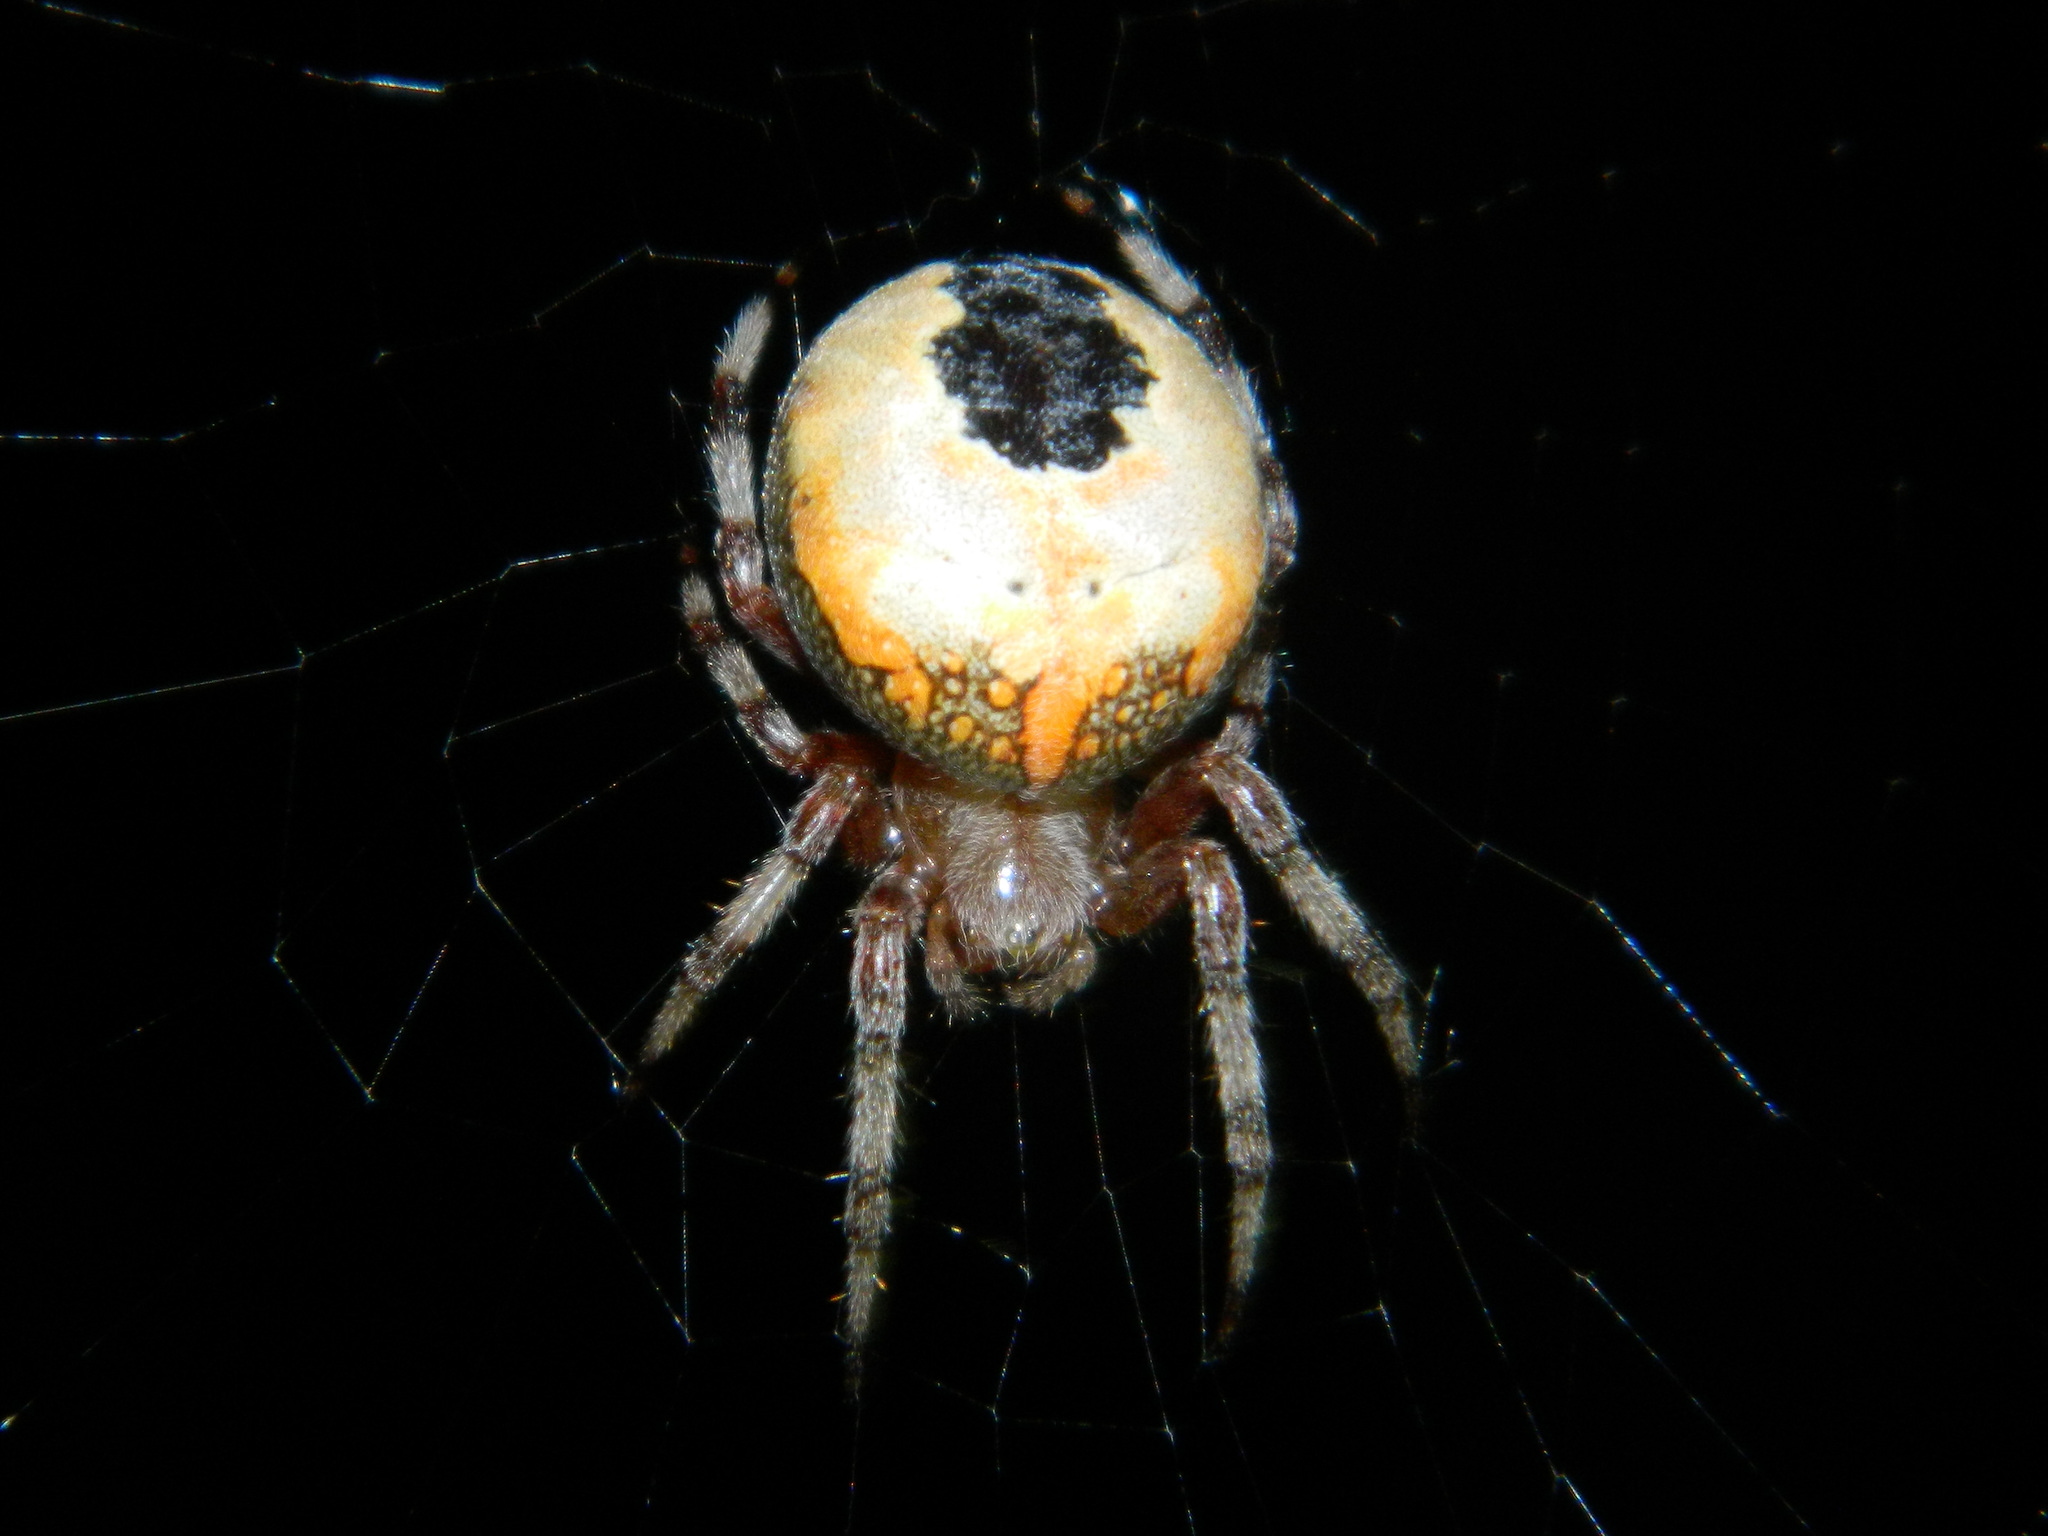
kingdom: Animalia
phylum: Arthropoda
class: Arachnida
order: Araneae
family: Araneidae
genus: Araneus
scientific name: Araneus marmoreus
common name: Marbled orbweaver
